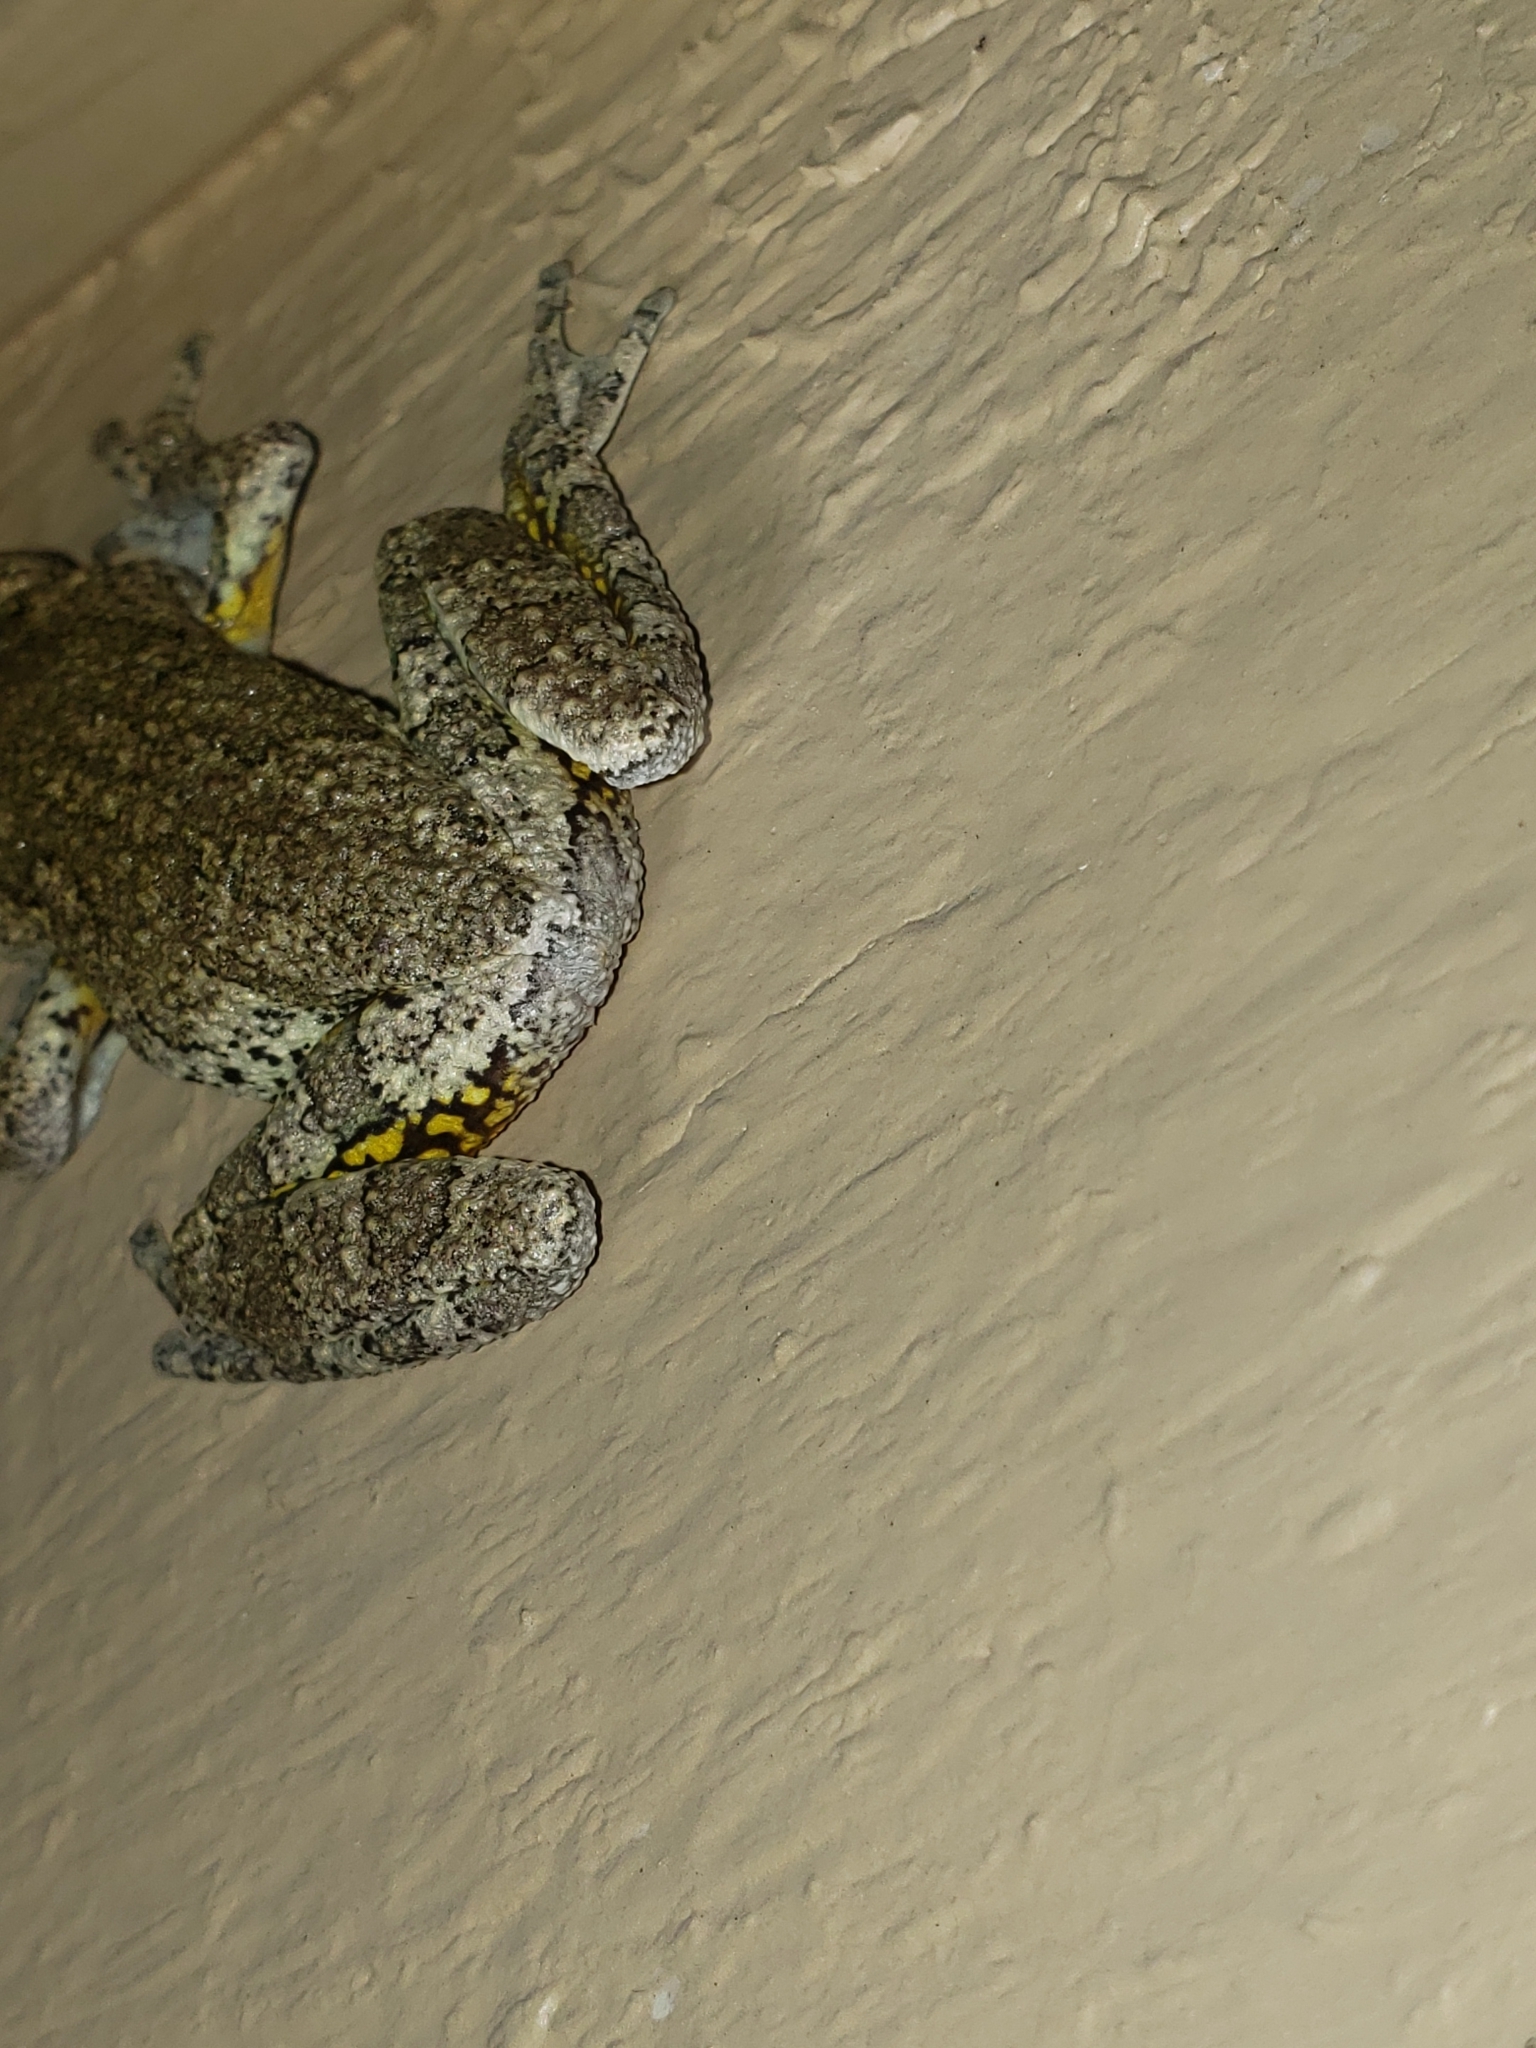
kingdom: Animalia
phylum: Chordata
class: Amphibia
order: Anura
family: Hylidae
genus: Hyla
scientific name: Hyla
